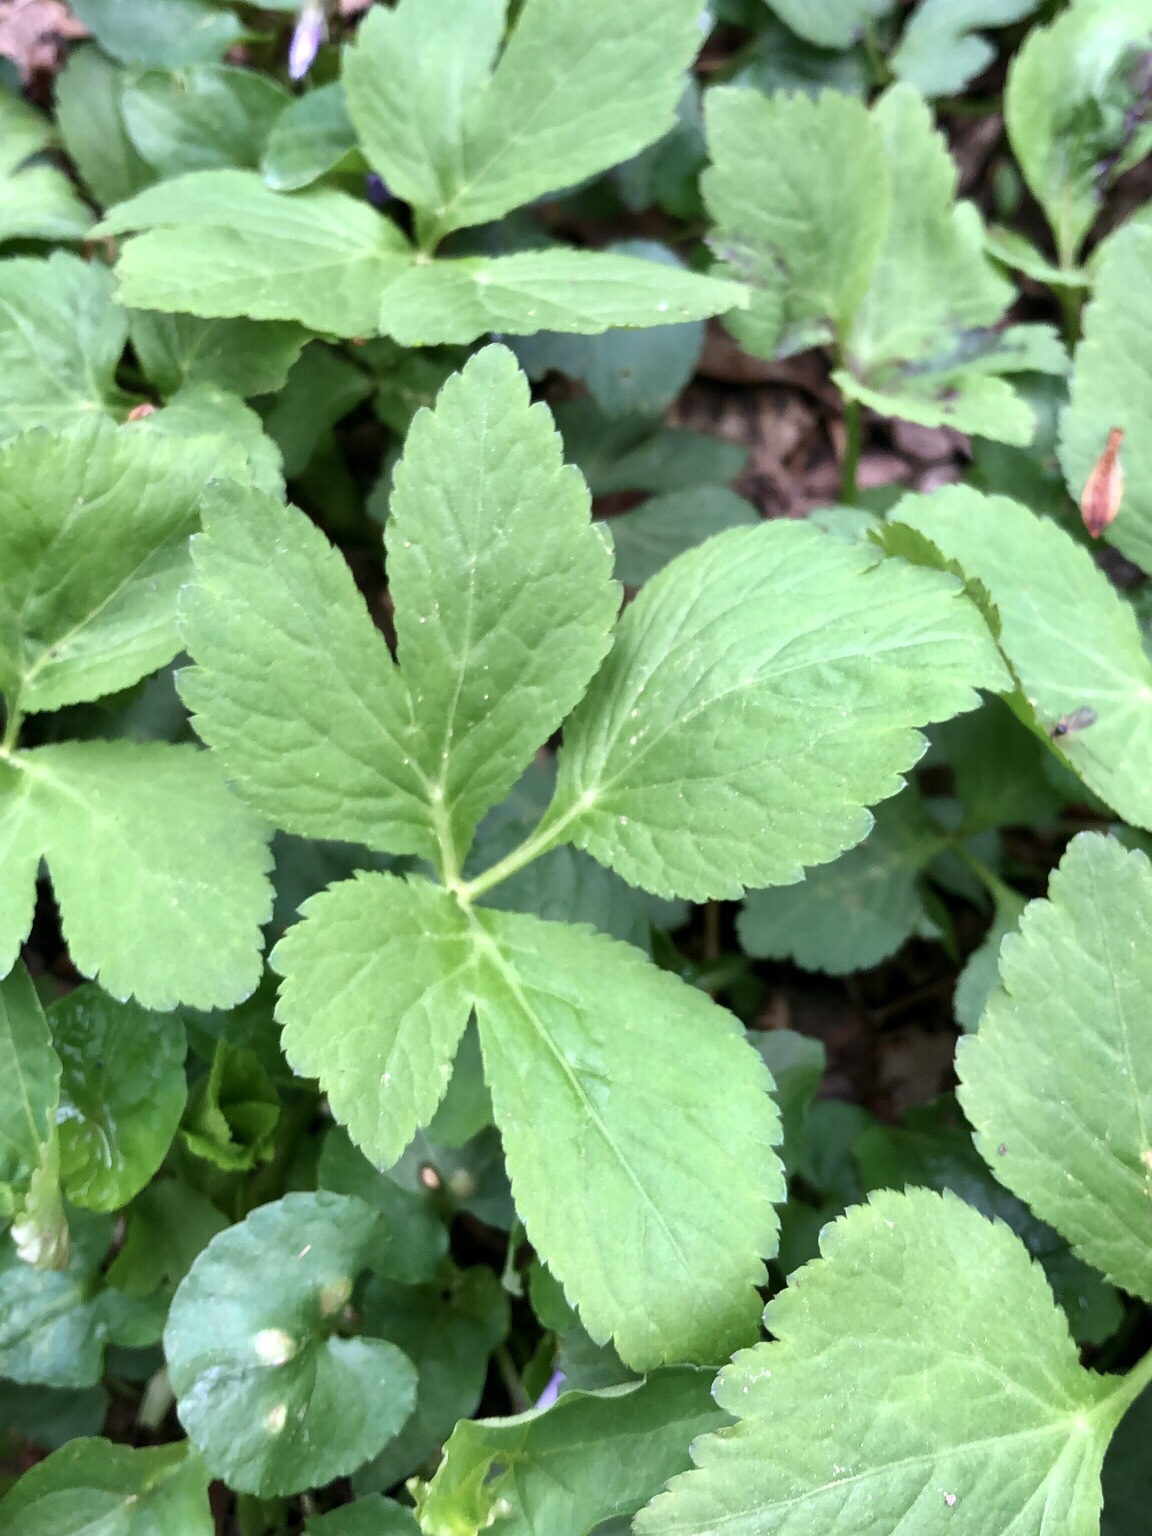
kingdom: Plantae
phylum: Tracheophyta
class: Magnoliopsida
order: Apiales
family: Apiaceae
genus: Cryptotaenia
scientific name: Cryptotaenia canadensis
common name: Honewort
